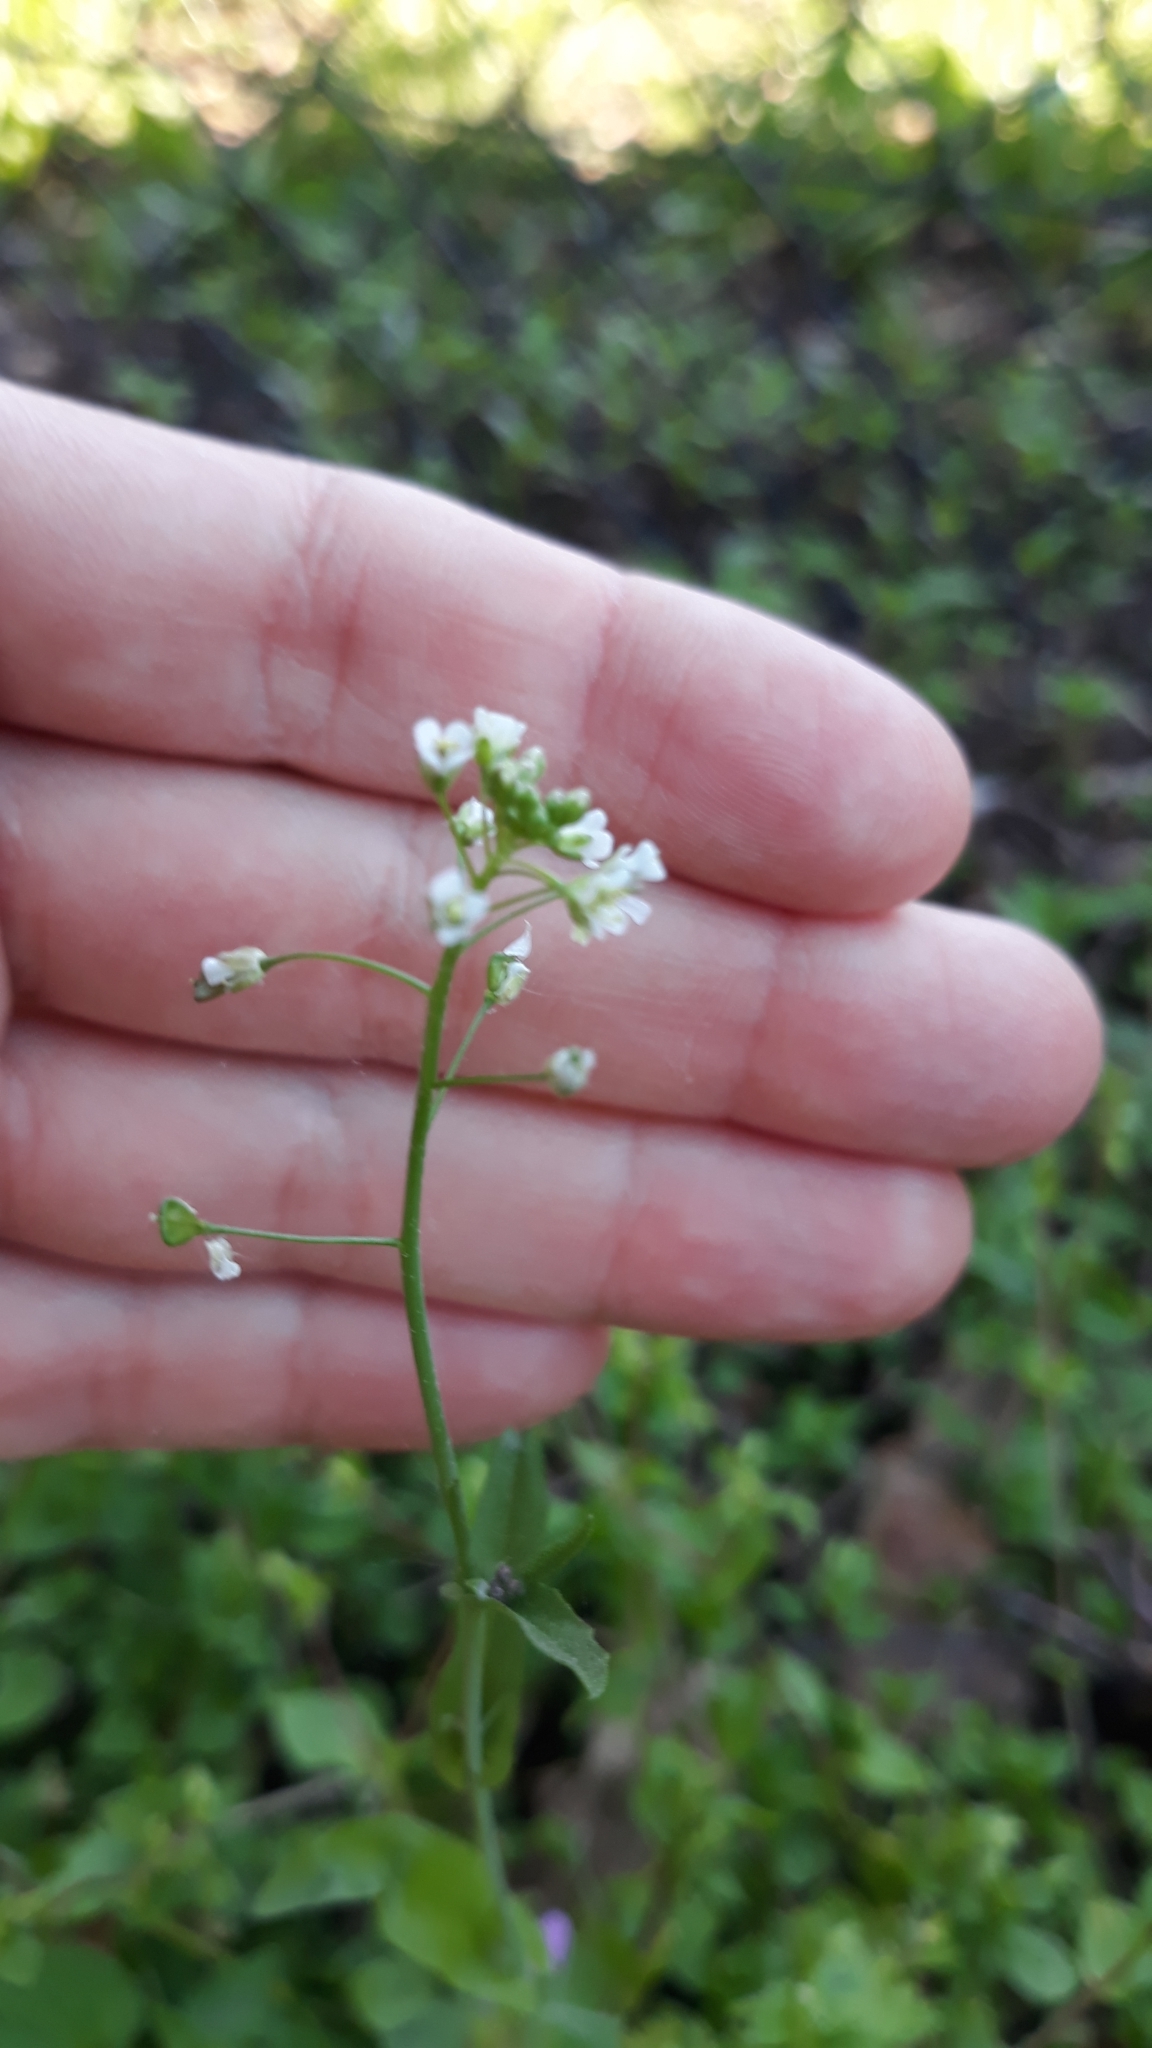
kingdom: Plantae
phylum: Tracheophyta
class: Magnoliopsida
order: Brassicales
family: Brassicaceae
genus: Capsella
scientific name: Capsella bursa-pastoris
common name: Shepherd's purse
